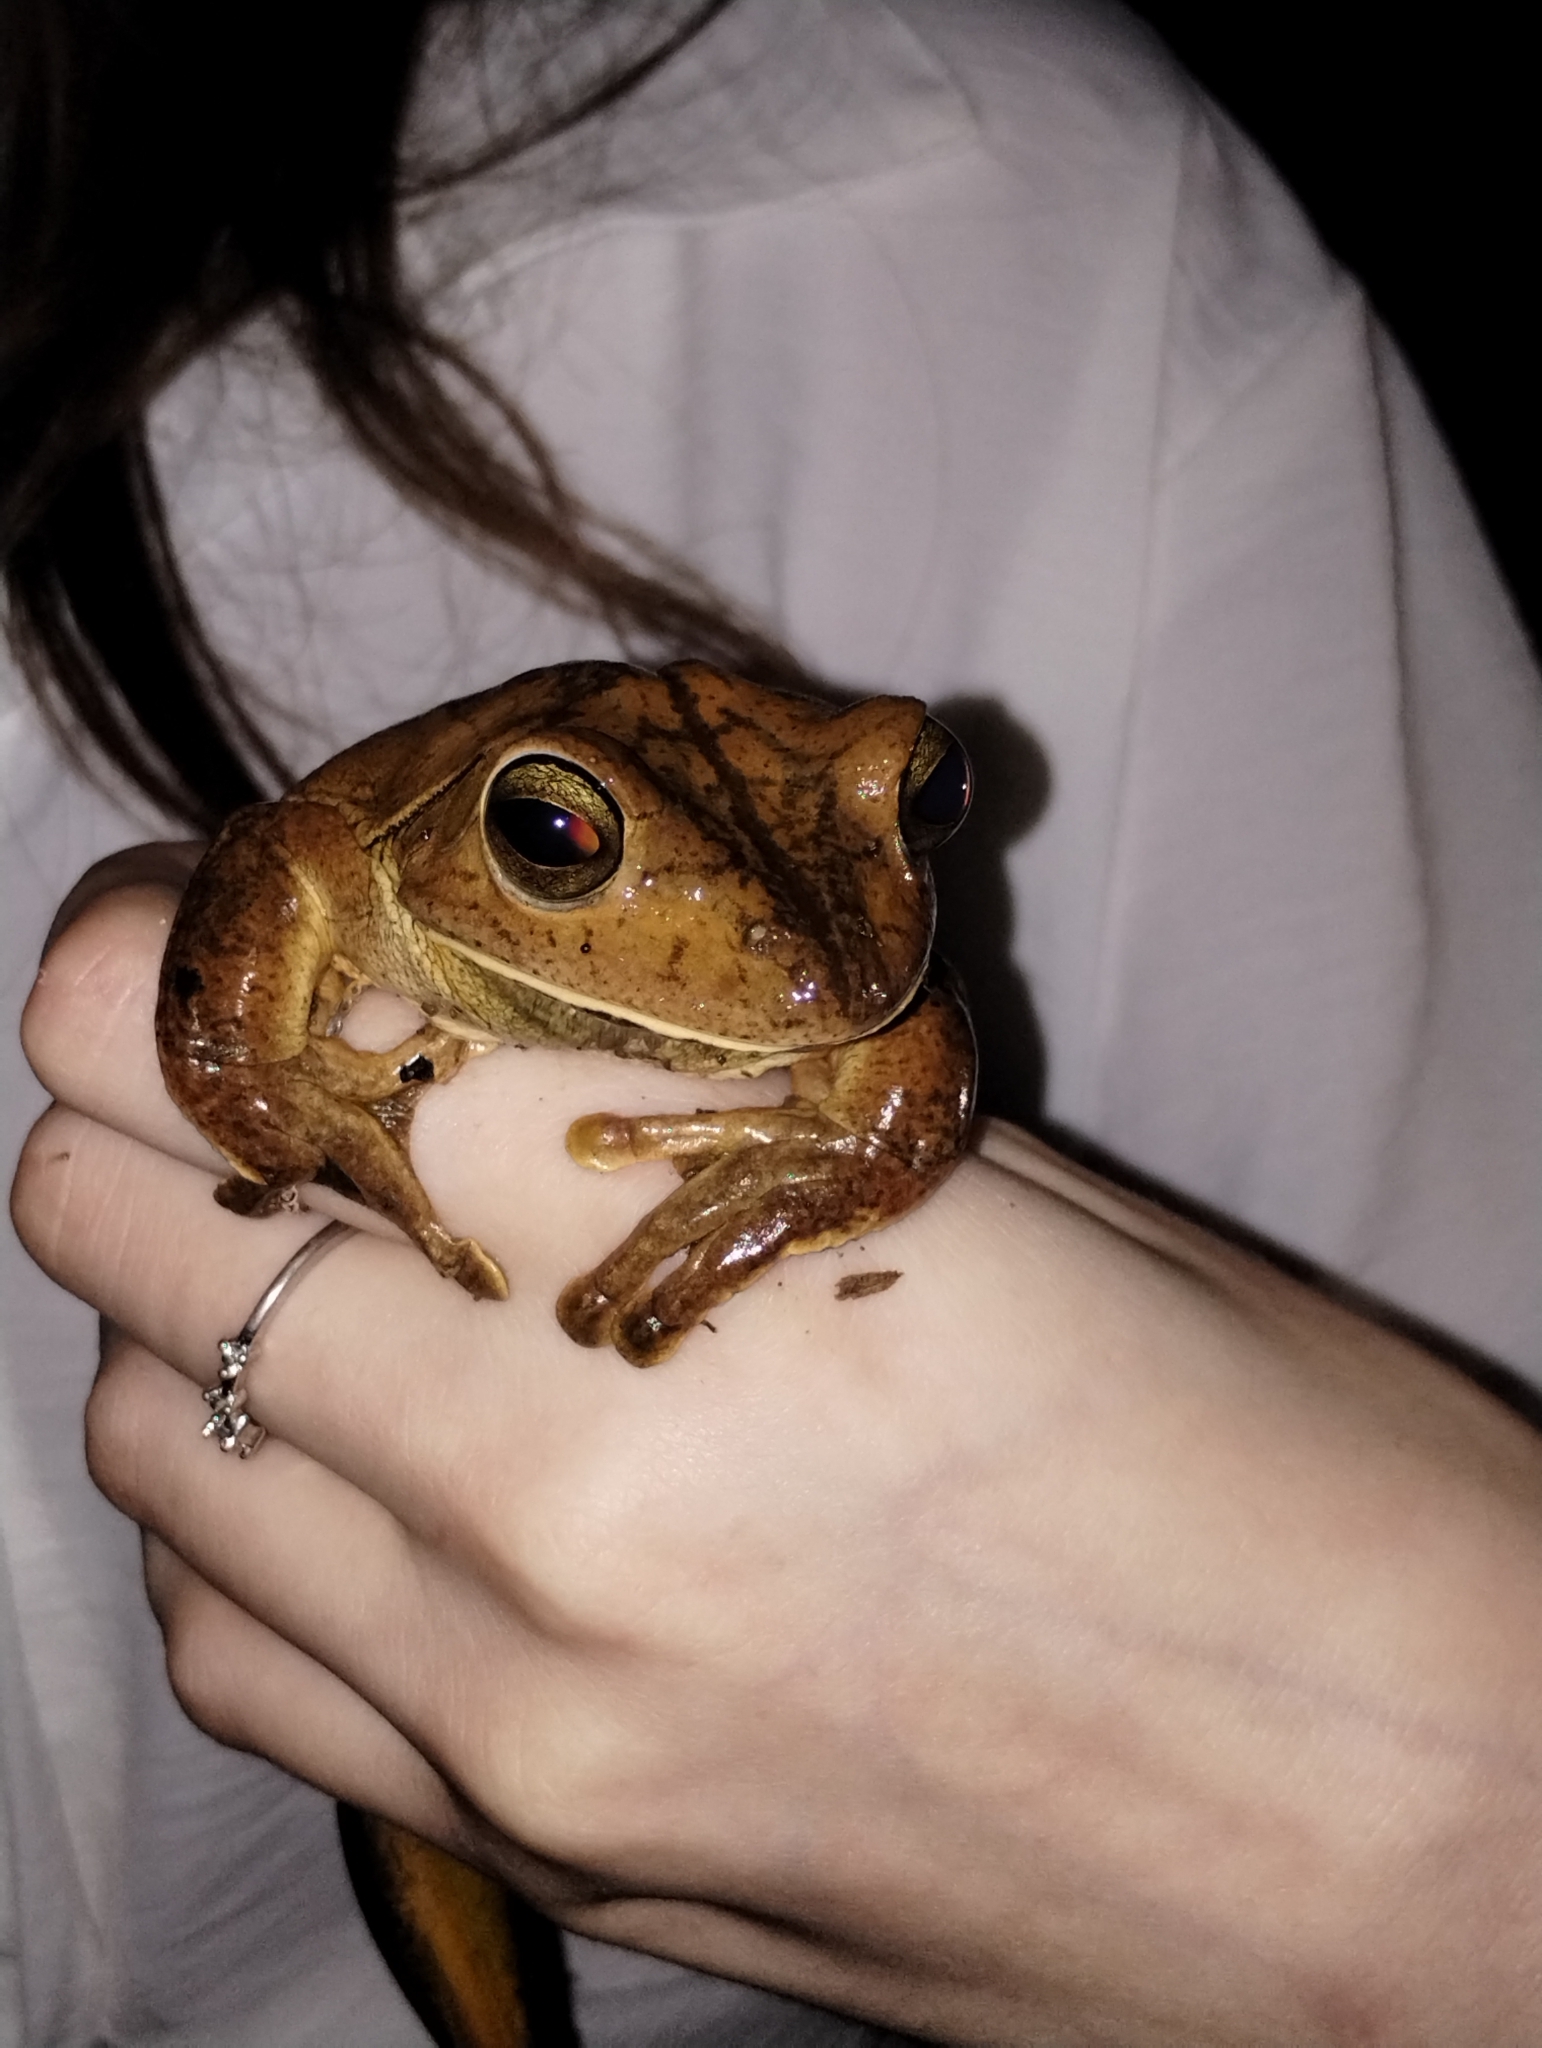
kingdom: Animalia
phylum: Chordata
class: Amphibia
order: Anura
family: Hylidae
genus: Boana
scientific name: Boana faber
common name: Blacksmith tree frog
